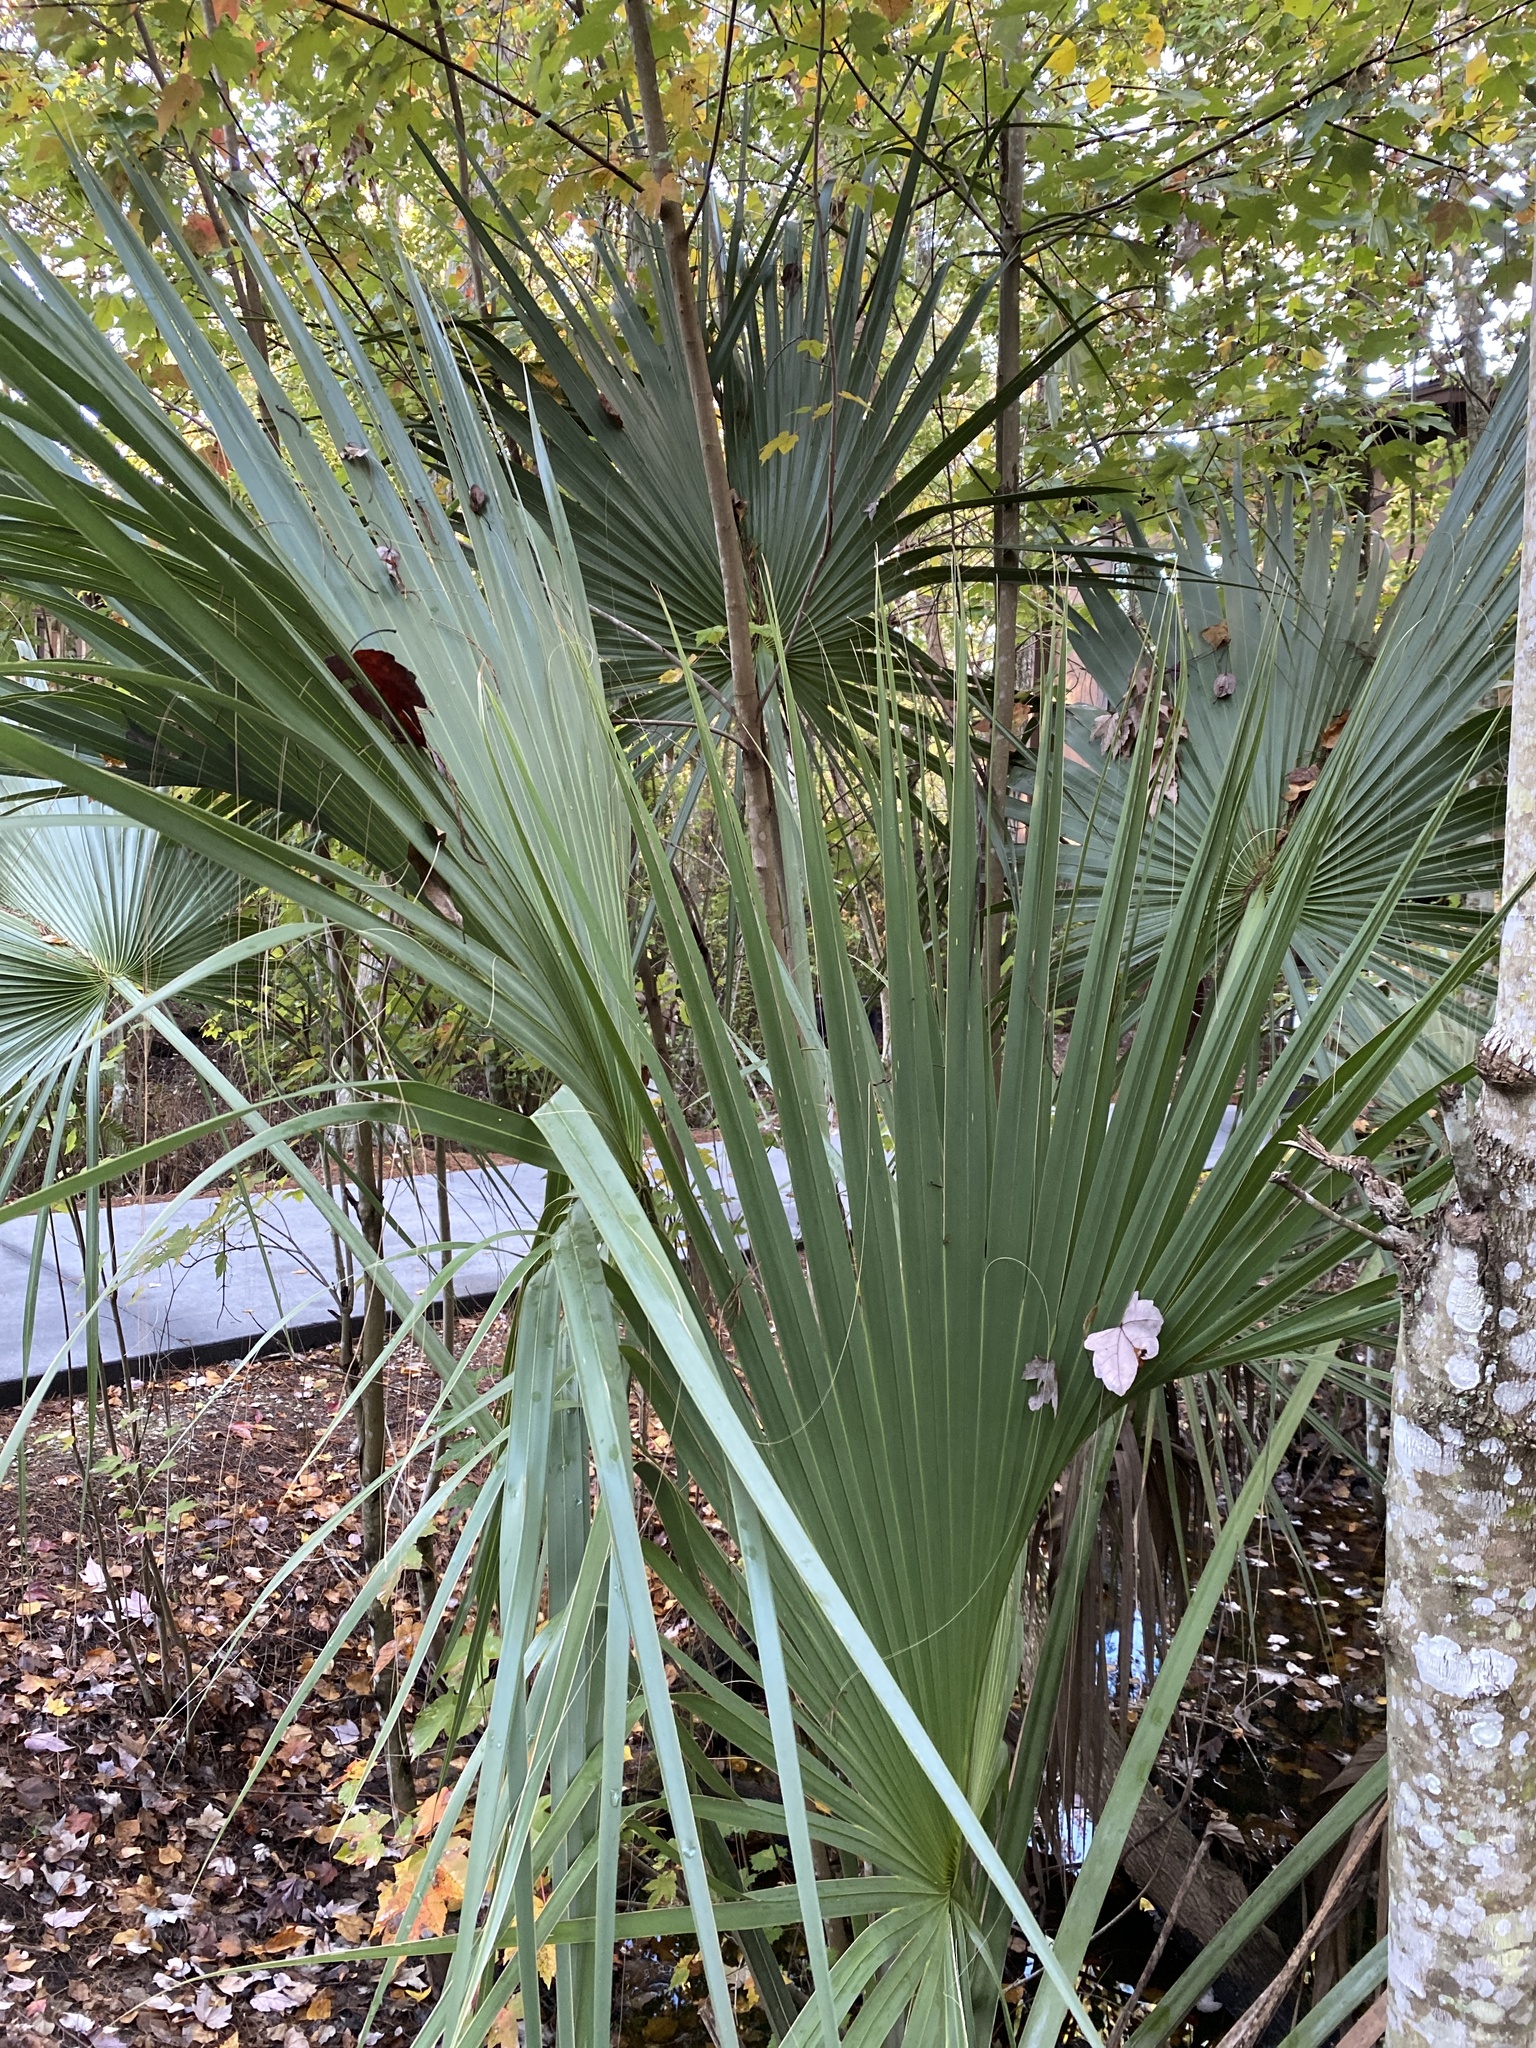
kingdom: Plantae
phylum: Tracheophyta
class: Liliopsida
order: Arecales
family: Arecaceae
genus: Sabal
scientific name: Sabal palmetto
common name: Blue palmetto
